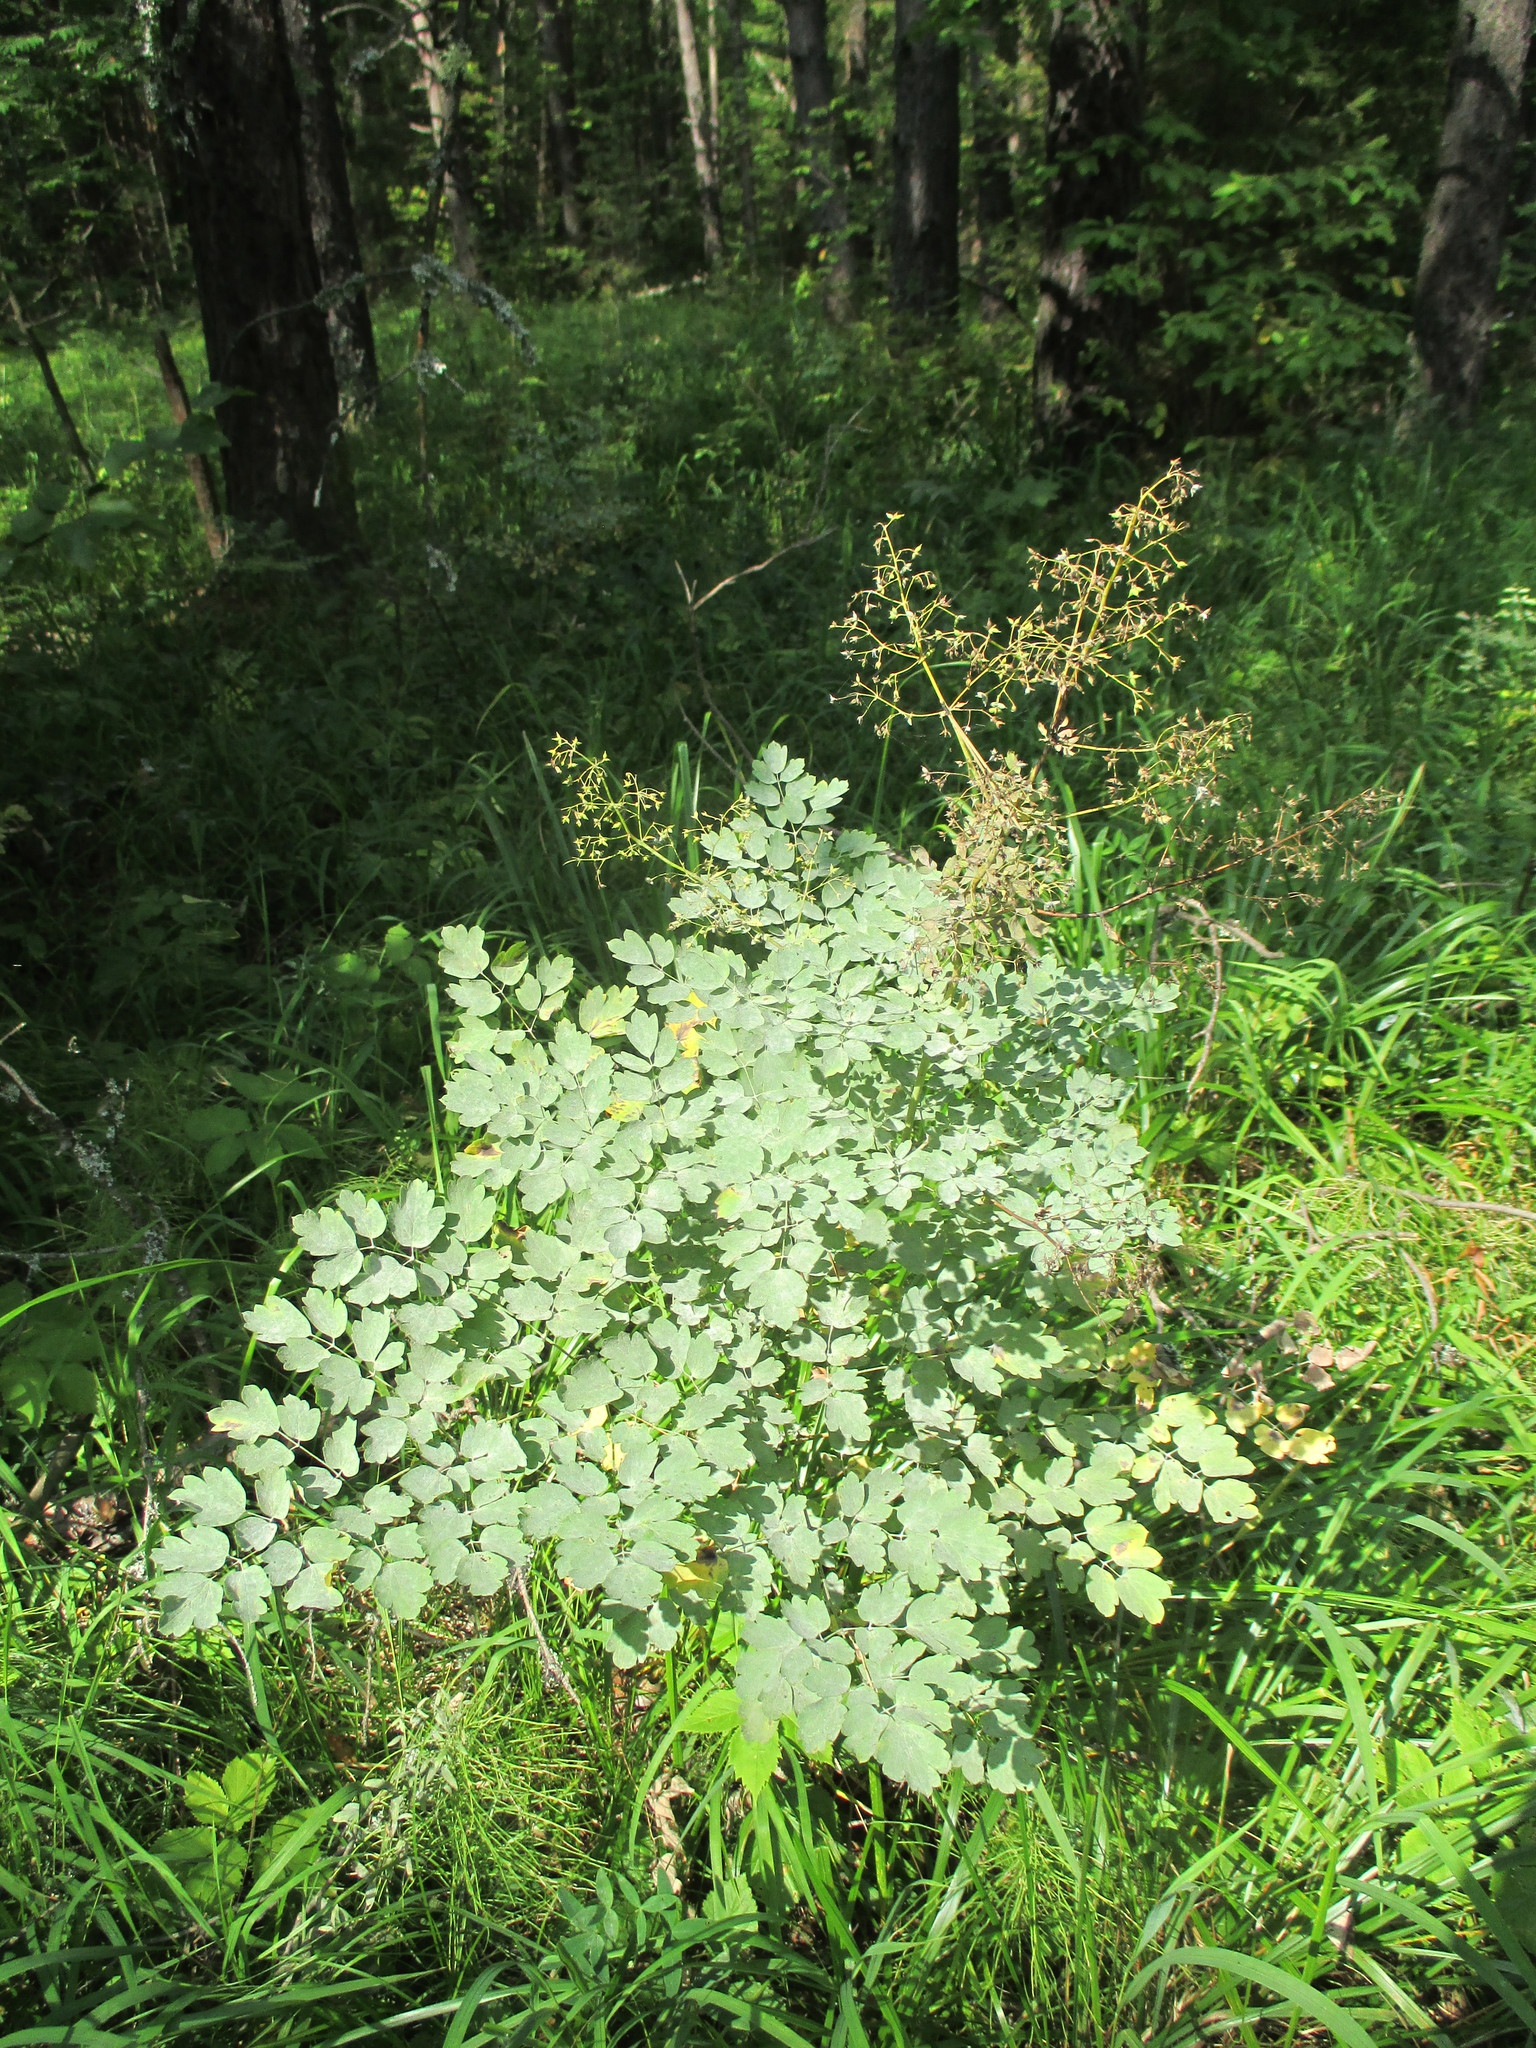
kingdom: Plantae
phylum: Tracheophyta
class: Magnoliopsida
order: Ranunculales
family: Ranunculaceae
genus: Thalictrum
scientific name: Thalictrum minus
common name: Lesser meadow-rue
